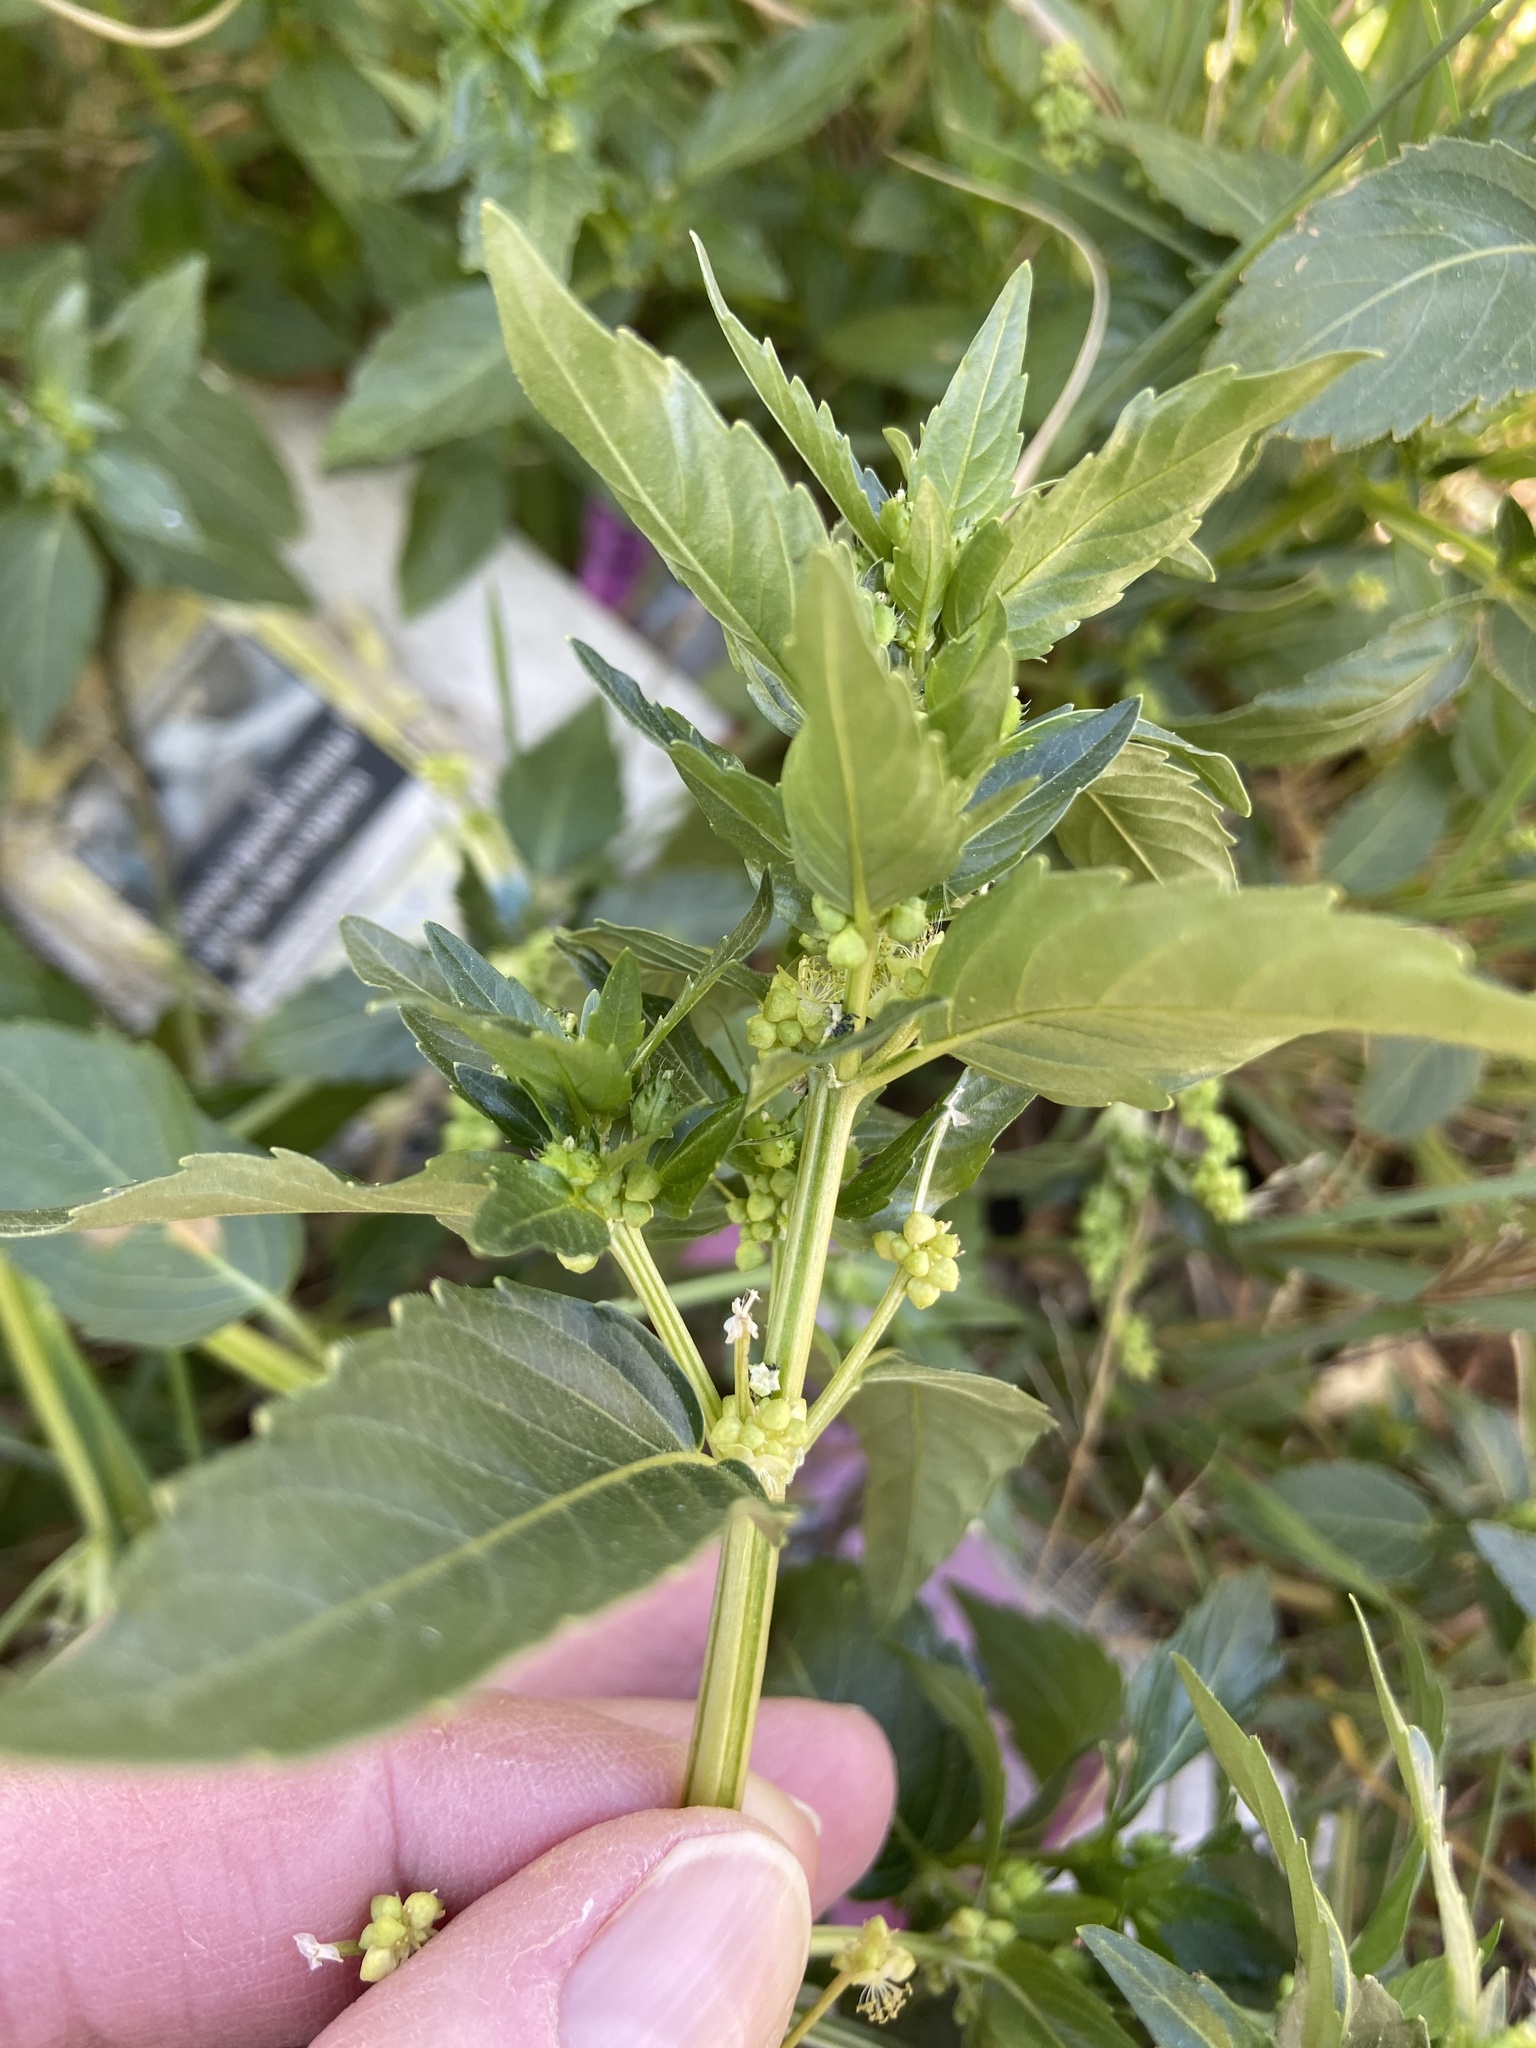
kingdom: Plantae
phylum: Tracheophyta
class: Magnoliopsida
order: Malpighiales
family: Euphorbiaceae
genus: Mercurialis
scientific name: Mercurialis annua
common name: Annual mercury
